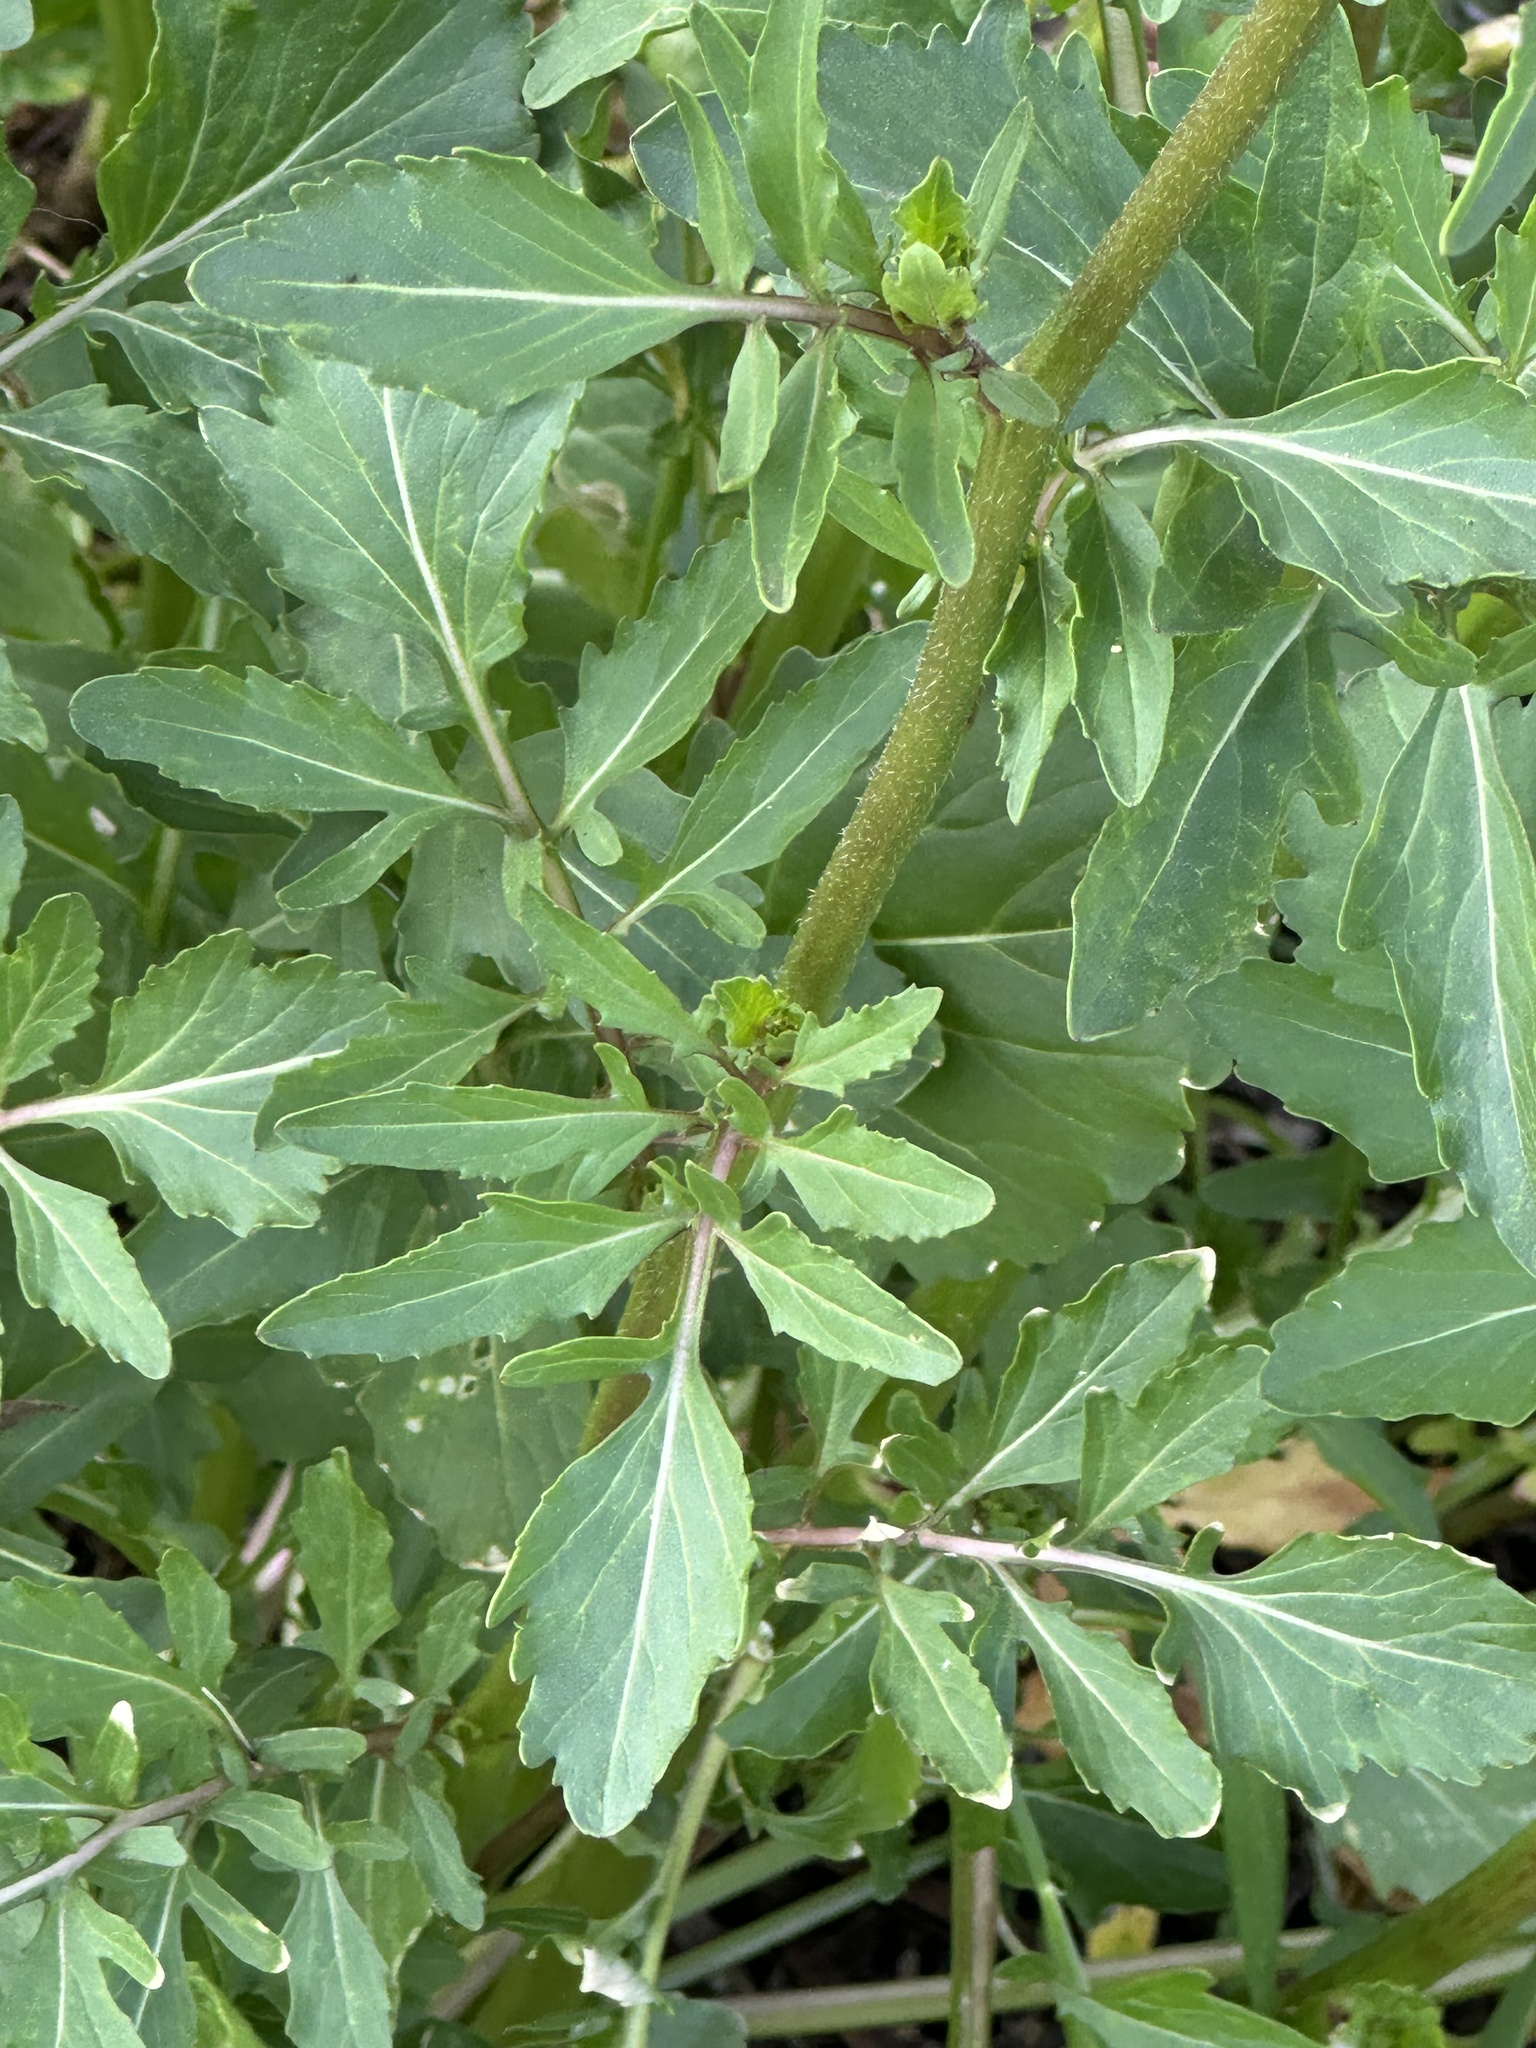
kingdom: Plantae
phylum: Tracheophyta
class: Magnoliopsida
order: Brassicales
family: Brassicaceae
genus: Eruca
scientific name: Eruca vesicaria
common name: Garden rocket
